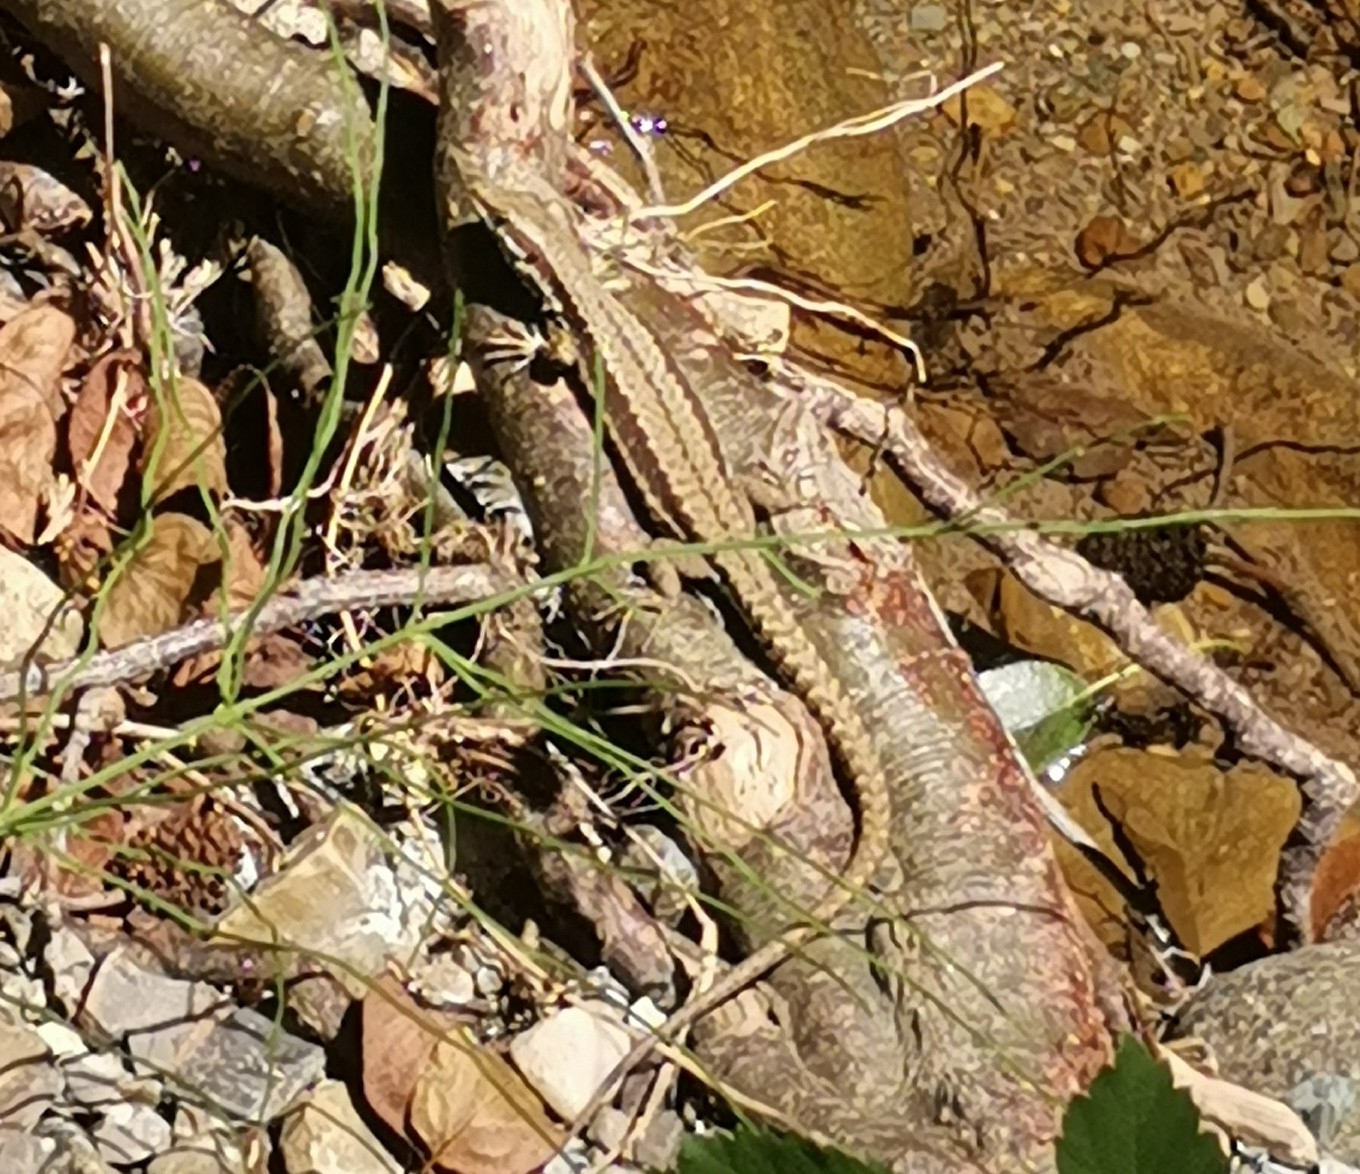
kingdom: Animalia
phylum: Chordata
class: Squamata
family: Lacertidae
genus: Podarcis
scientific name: Podarcis muralis
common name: Common wall lizard
